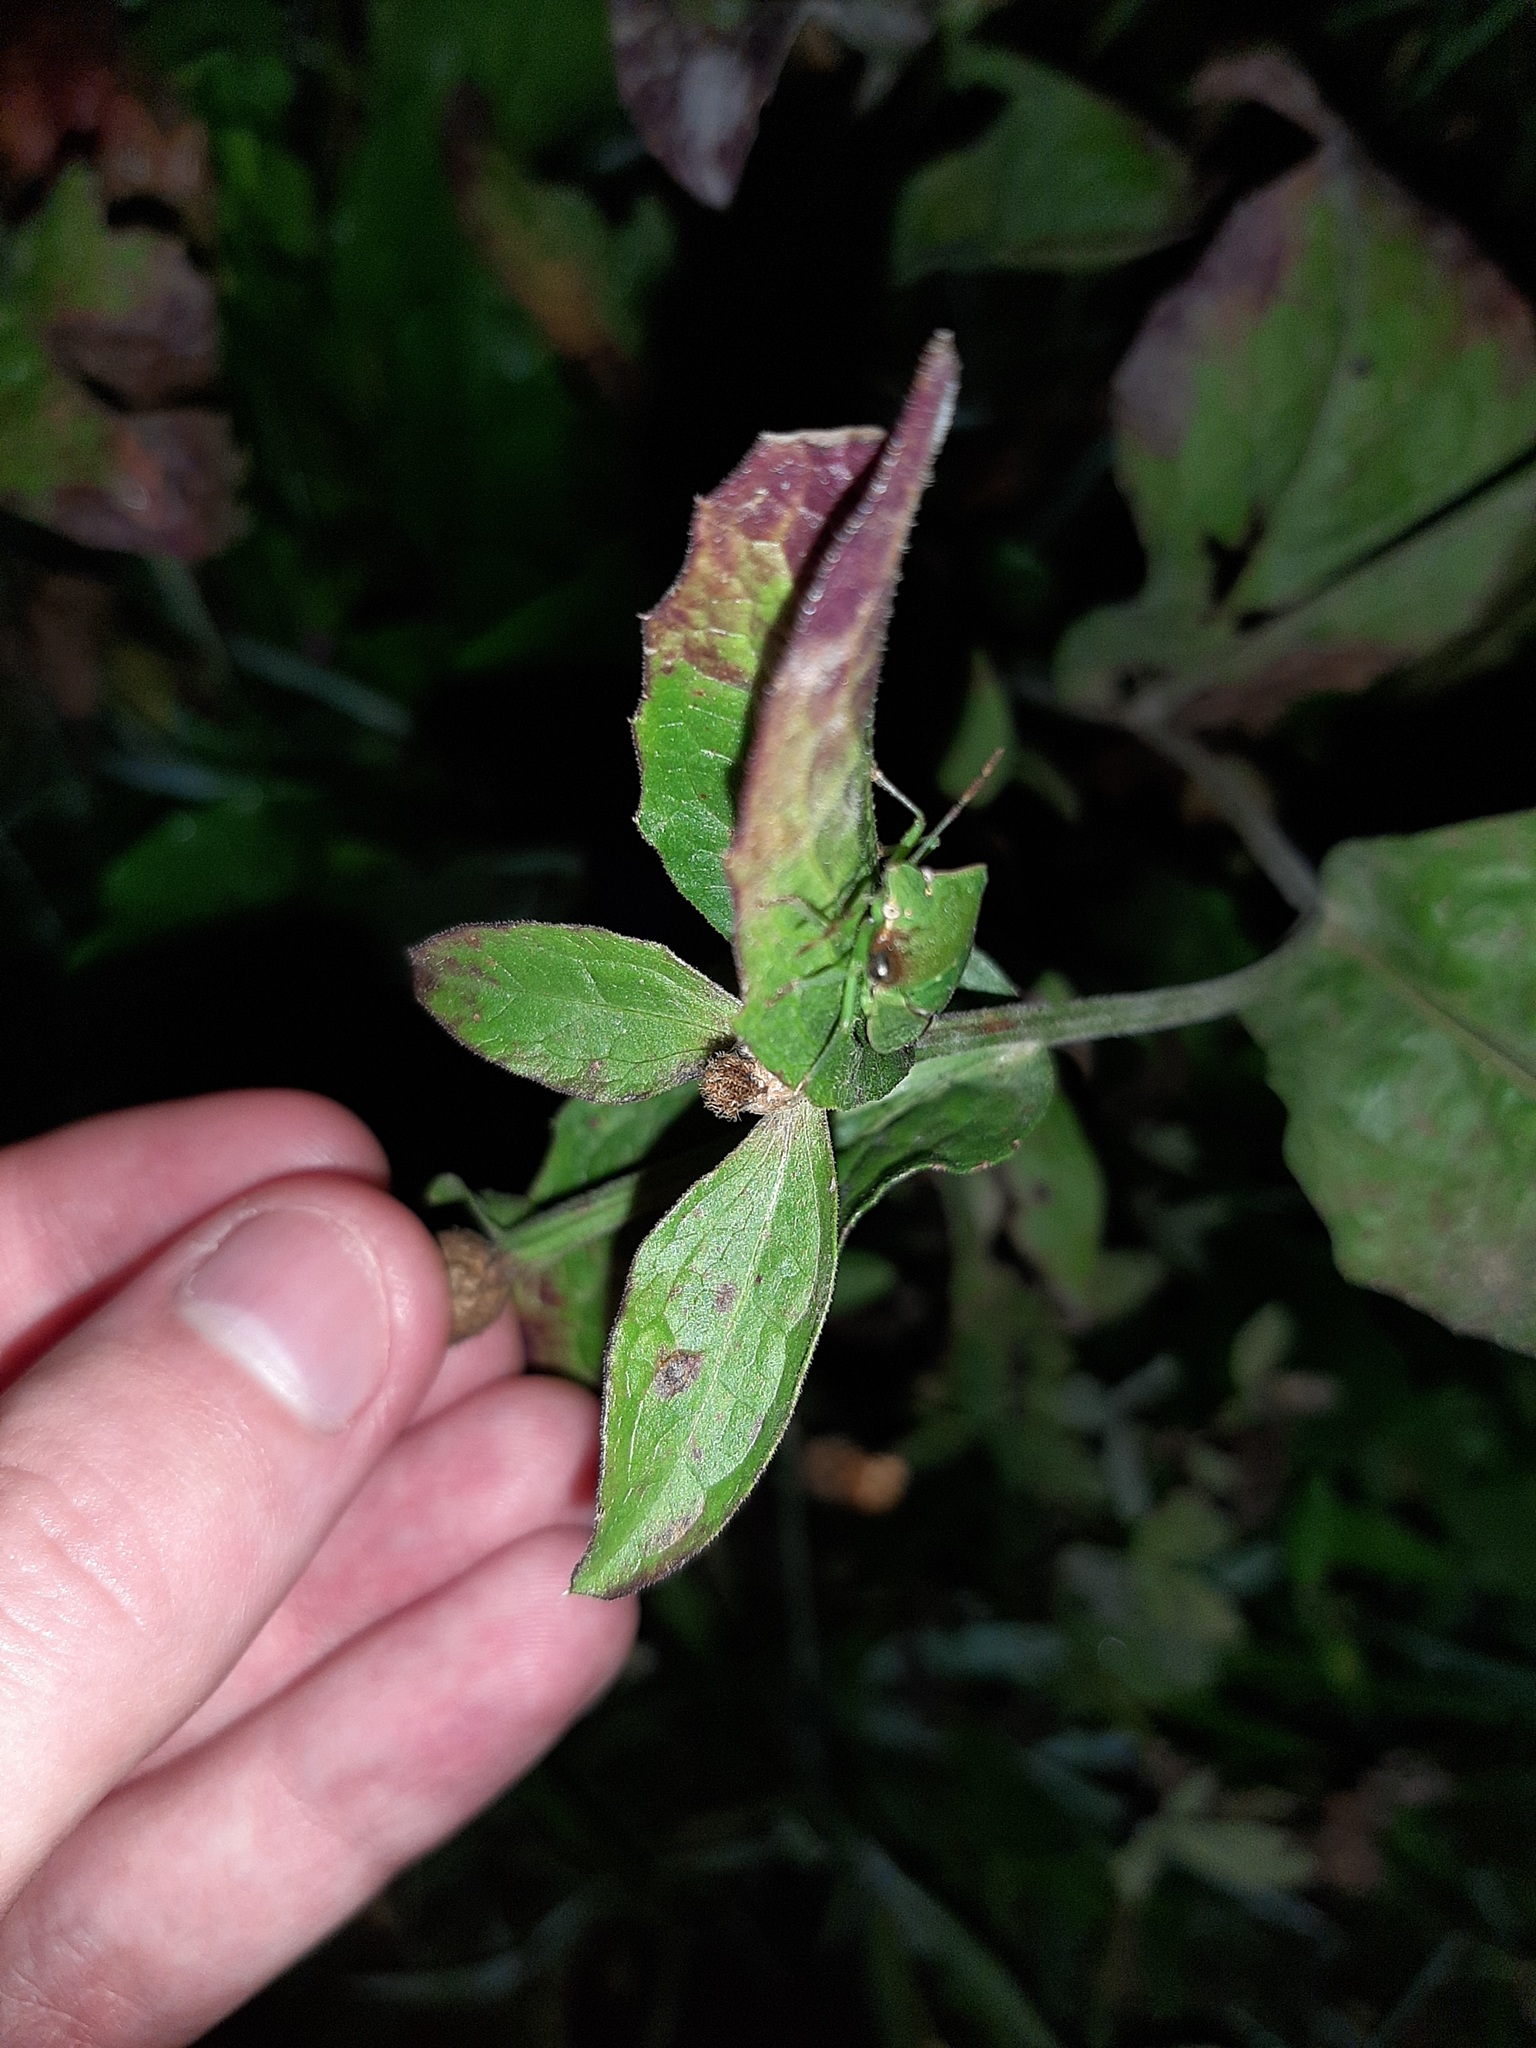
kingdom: Animalia
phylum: Arthropoda
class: Insecta
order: Hemiptera
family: Pentatomidae
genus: Nezara
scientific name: Nezara viridula
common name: Southern green stink bug
